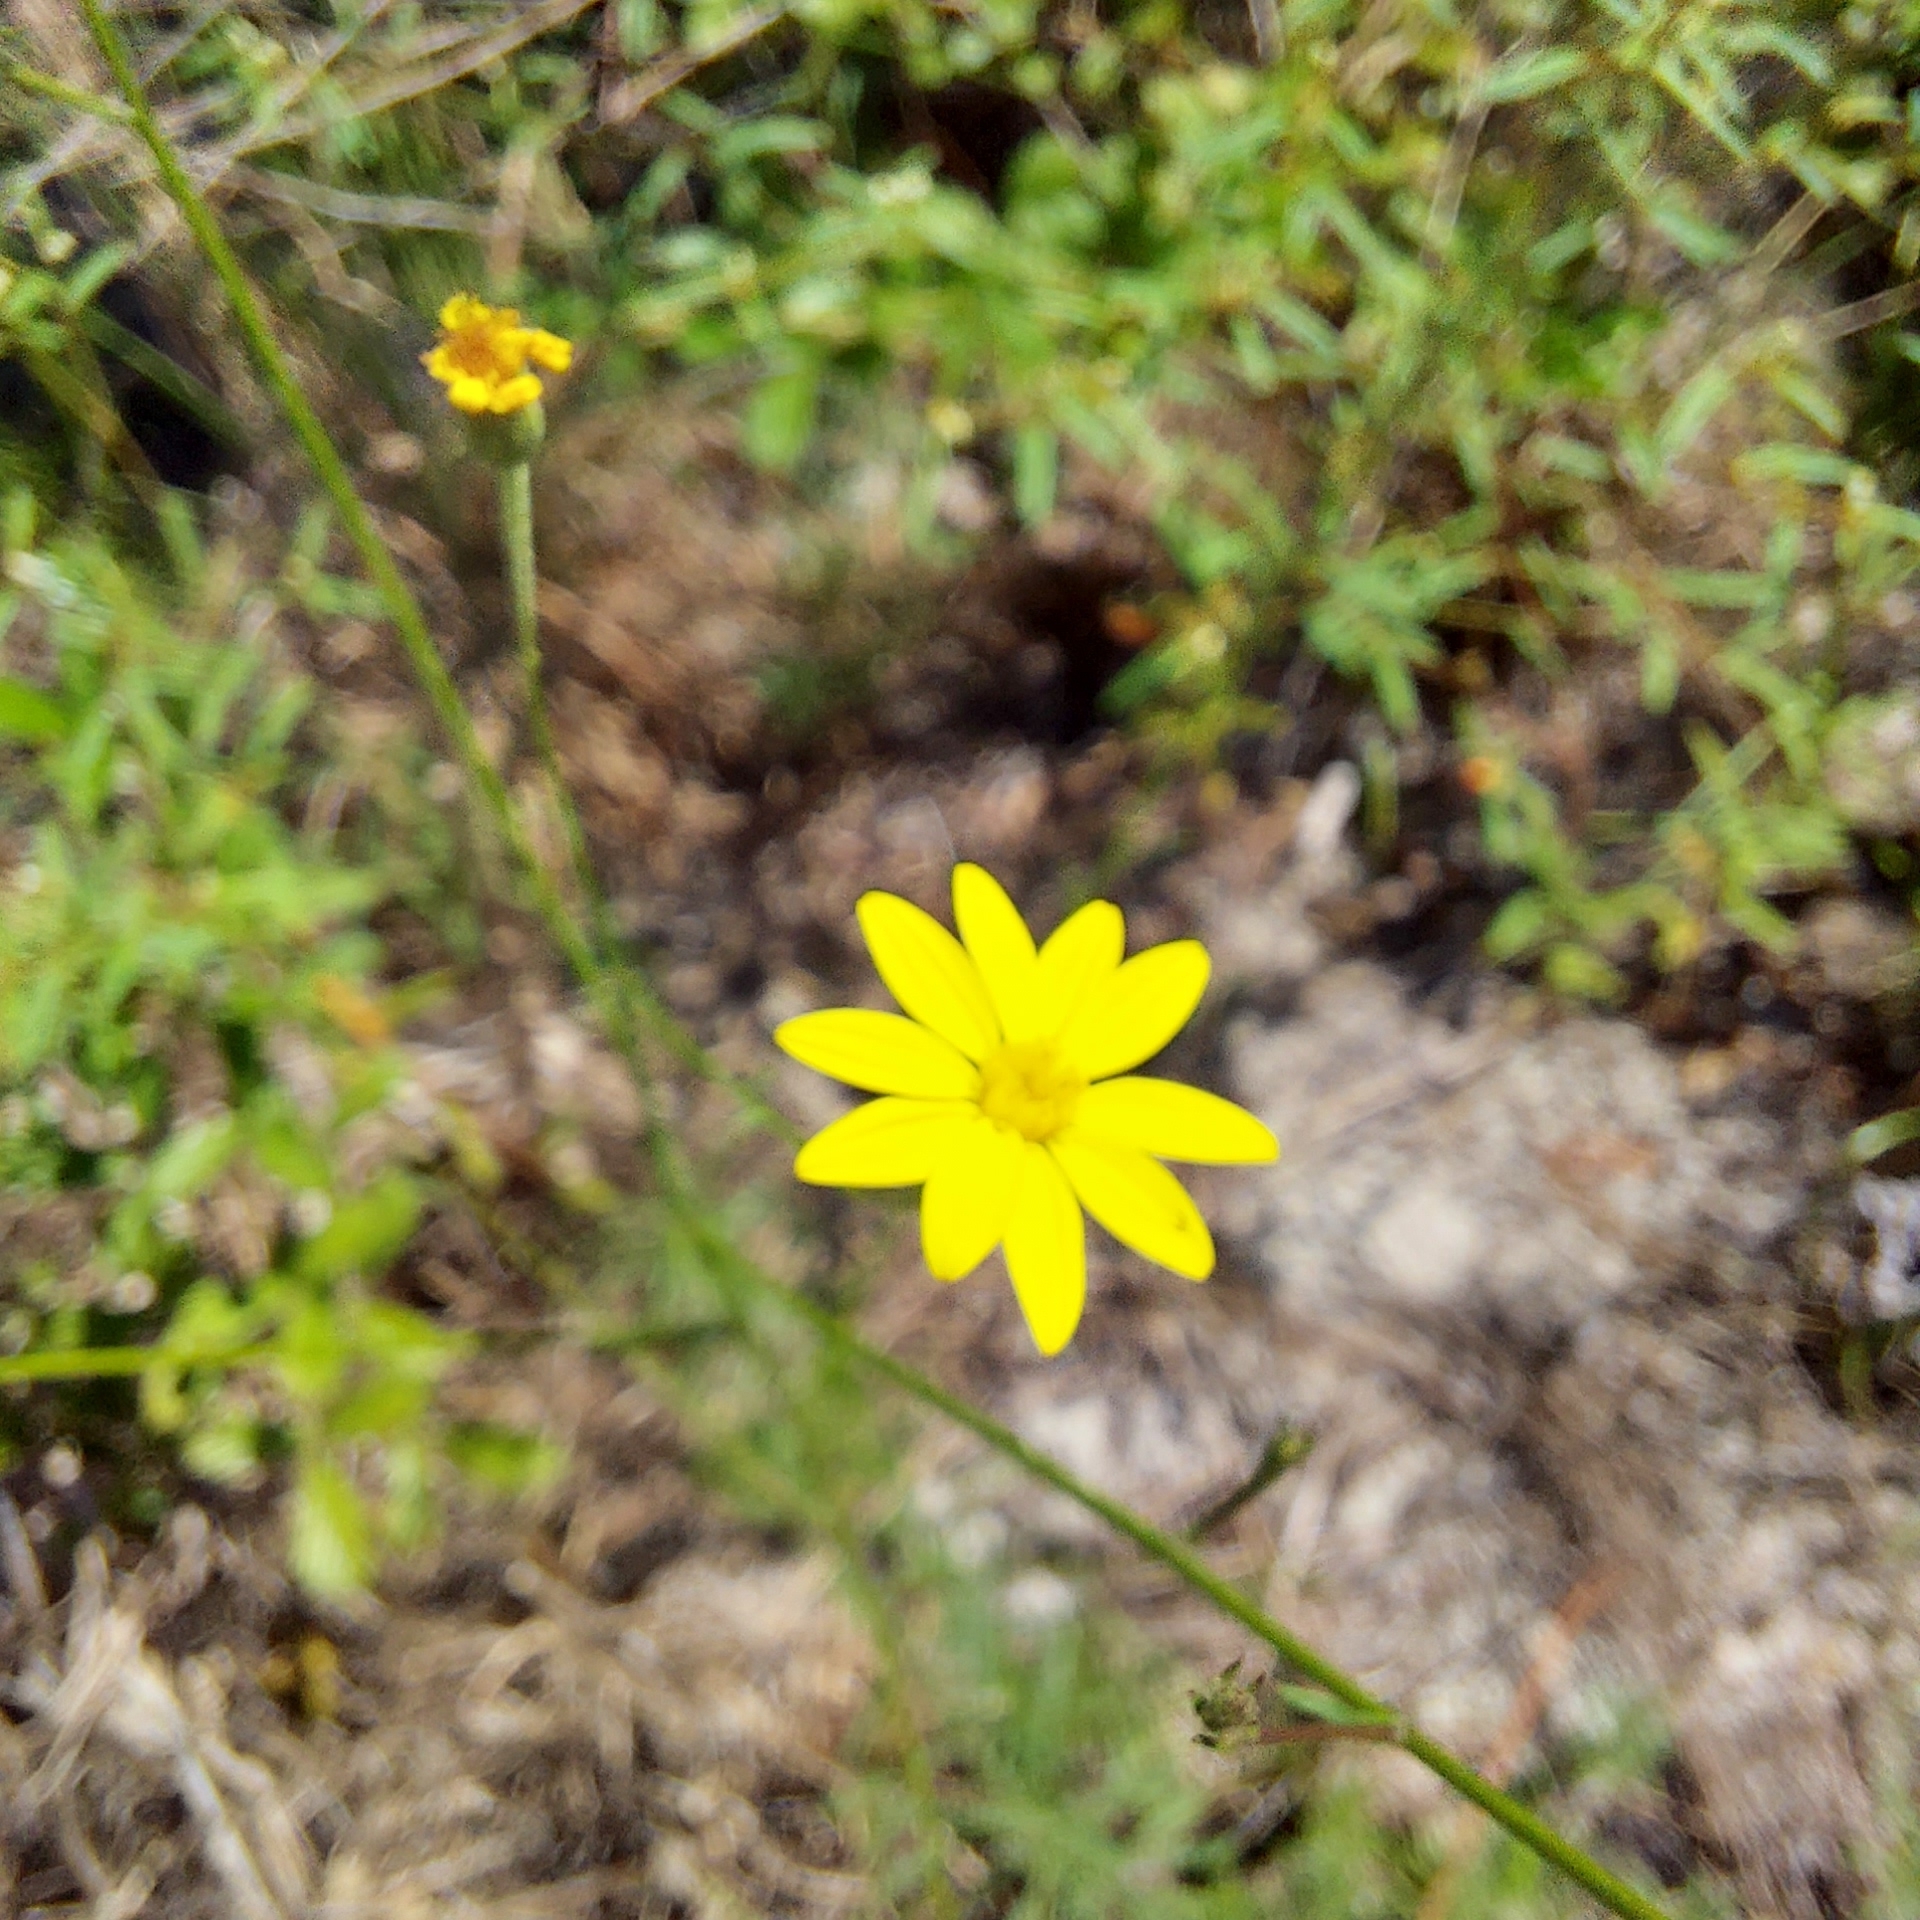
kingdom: Plantae
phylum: Tracheophyta
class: Magnoliopsida
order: Asterales
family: Asteraceae
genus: Croptilon
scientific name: Croptilon divaricatum
